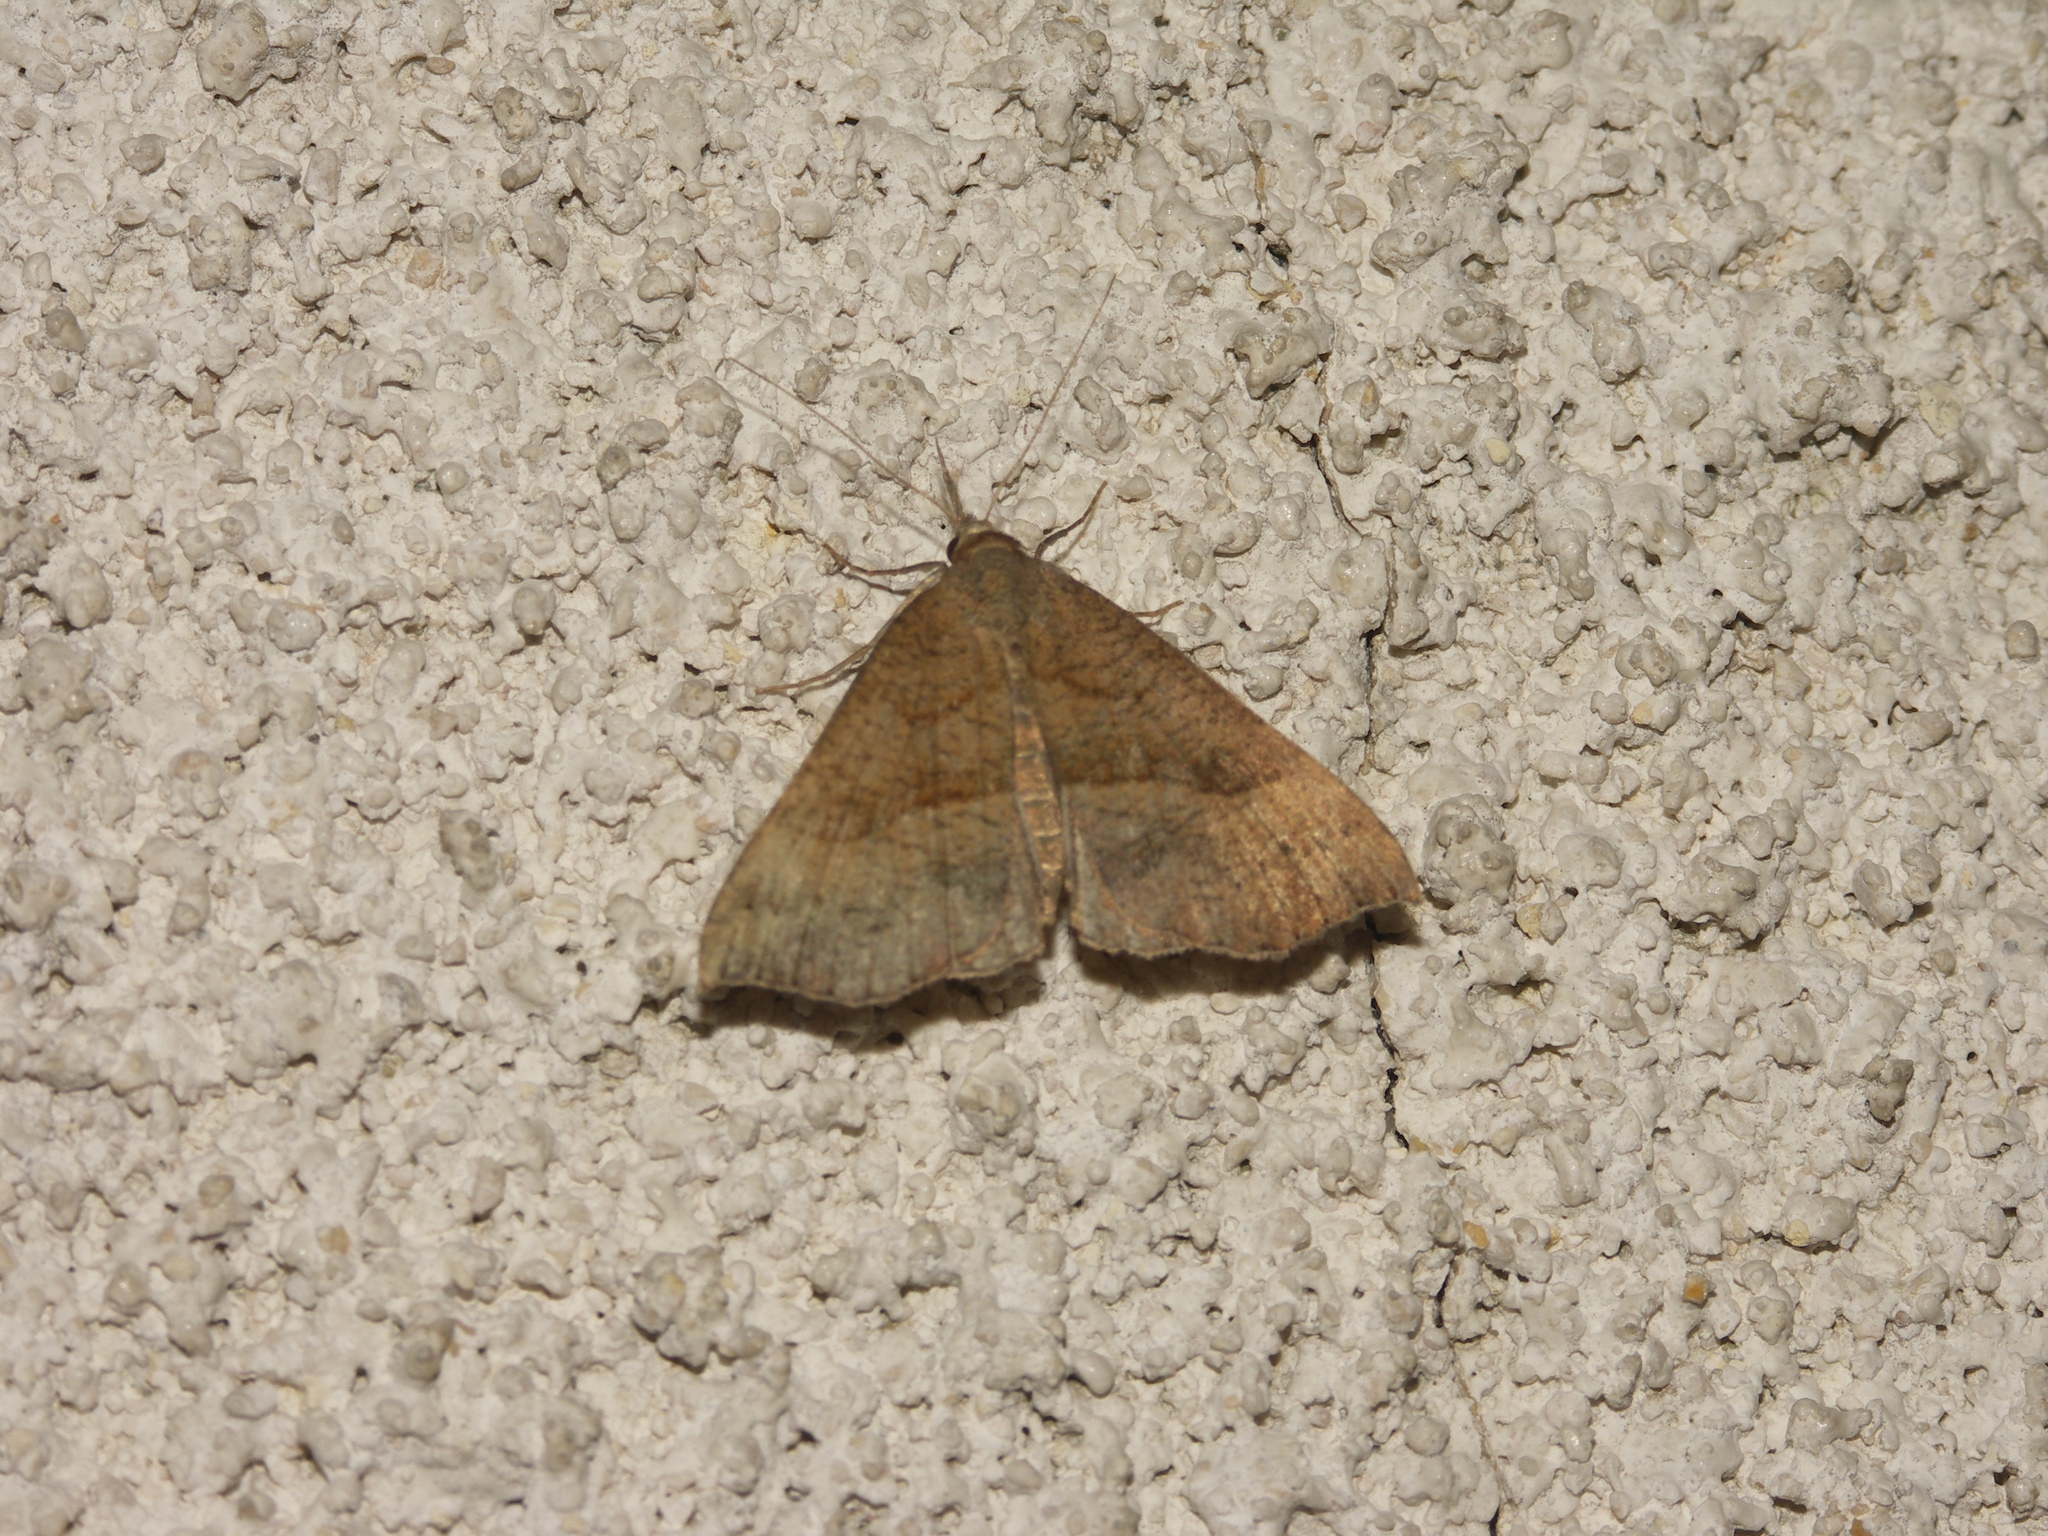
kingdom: Animalia
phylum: Arthropoda
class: Insecta
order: Lepidoptera
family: Erebidae
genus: Hypena
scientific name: Hypena proboscidalis
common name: Snout
